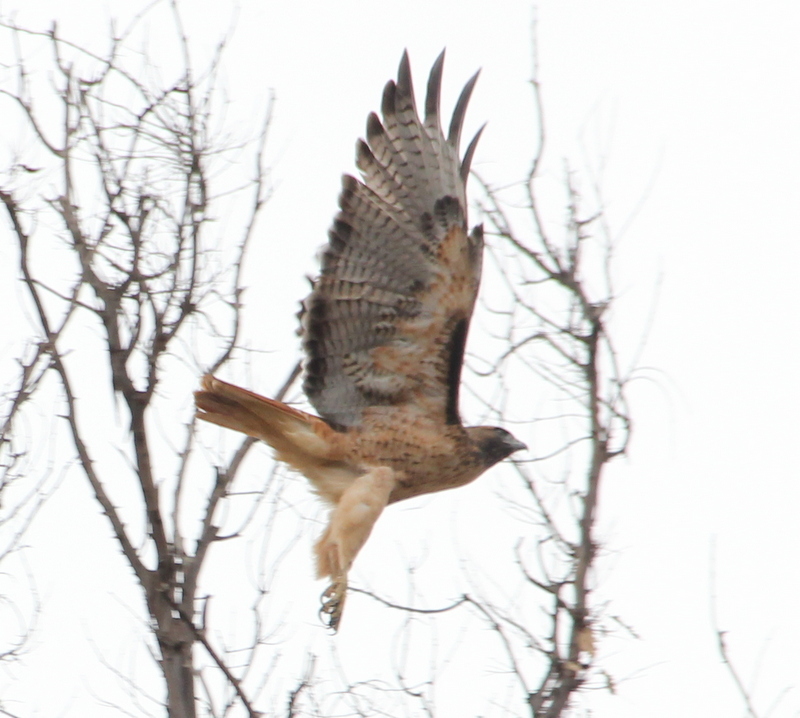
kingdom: Animalia
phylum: Chordata
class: Aves
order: Accipitriformes
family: Accipitridae
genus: Buteo
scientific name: Buteo jamaicensis
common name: Red-tailed hawk
